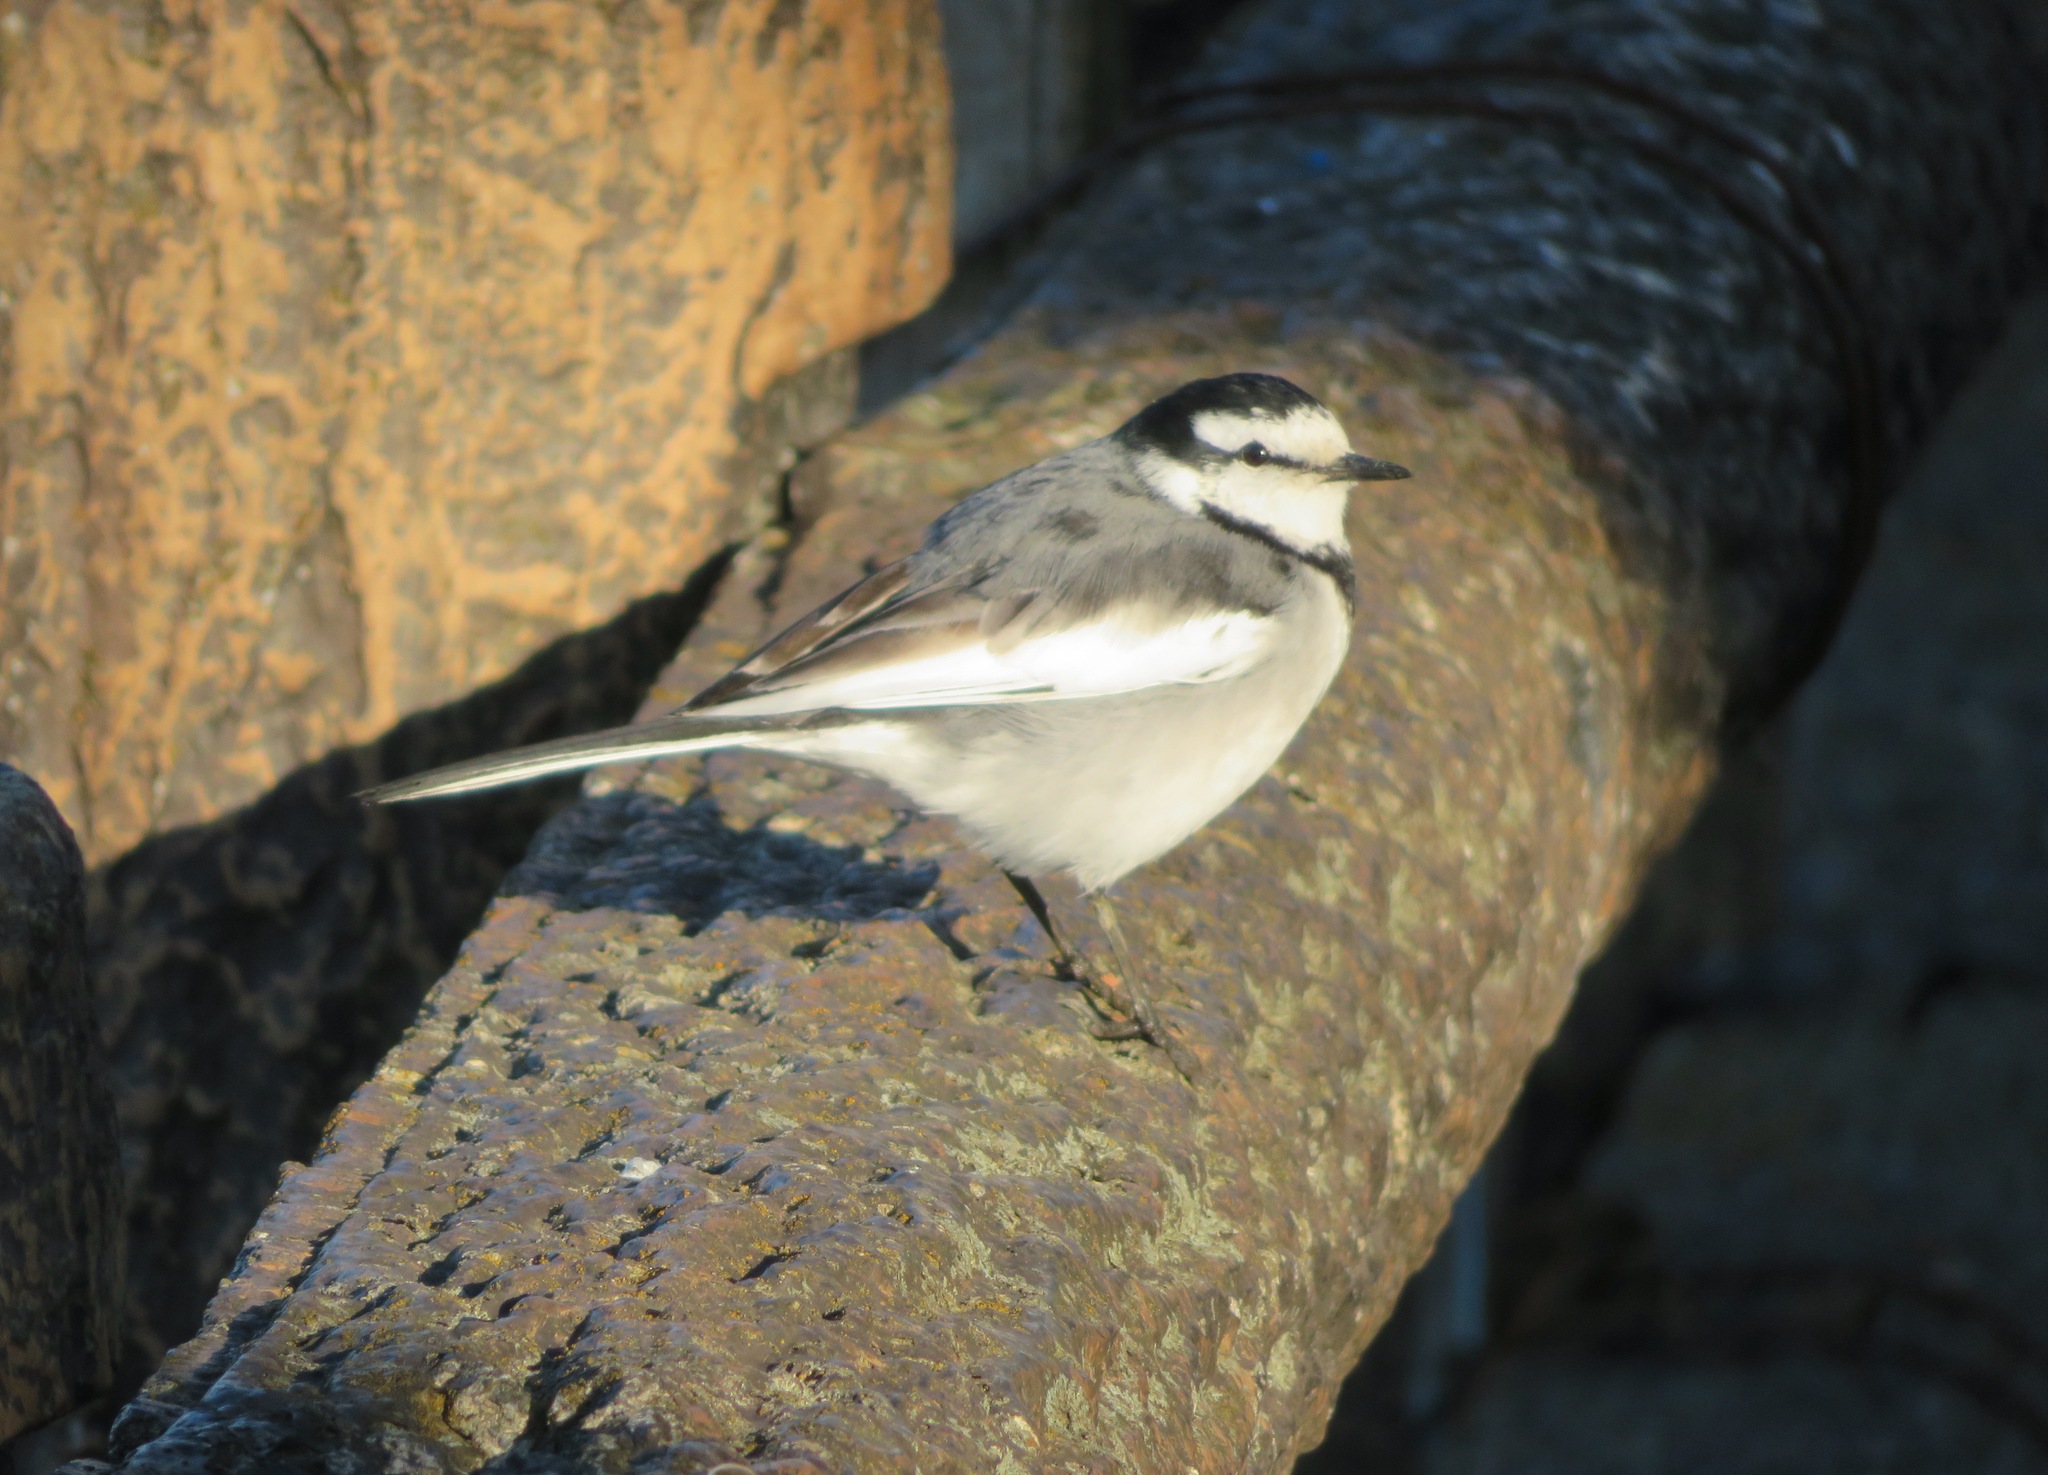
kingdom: Animalia
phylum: Chordata
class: Aves
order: Passeriformes
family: Motacillidae
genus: Motacilla
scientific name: Motacilla alba
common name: White wagtail
